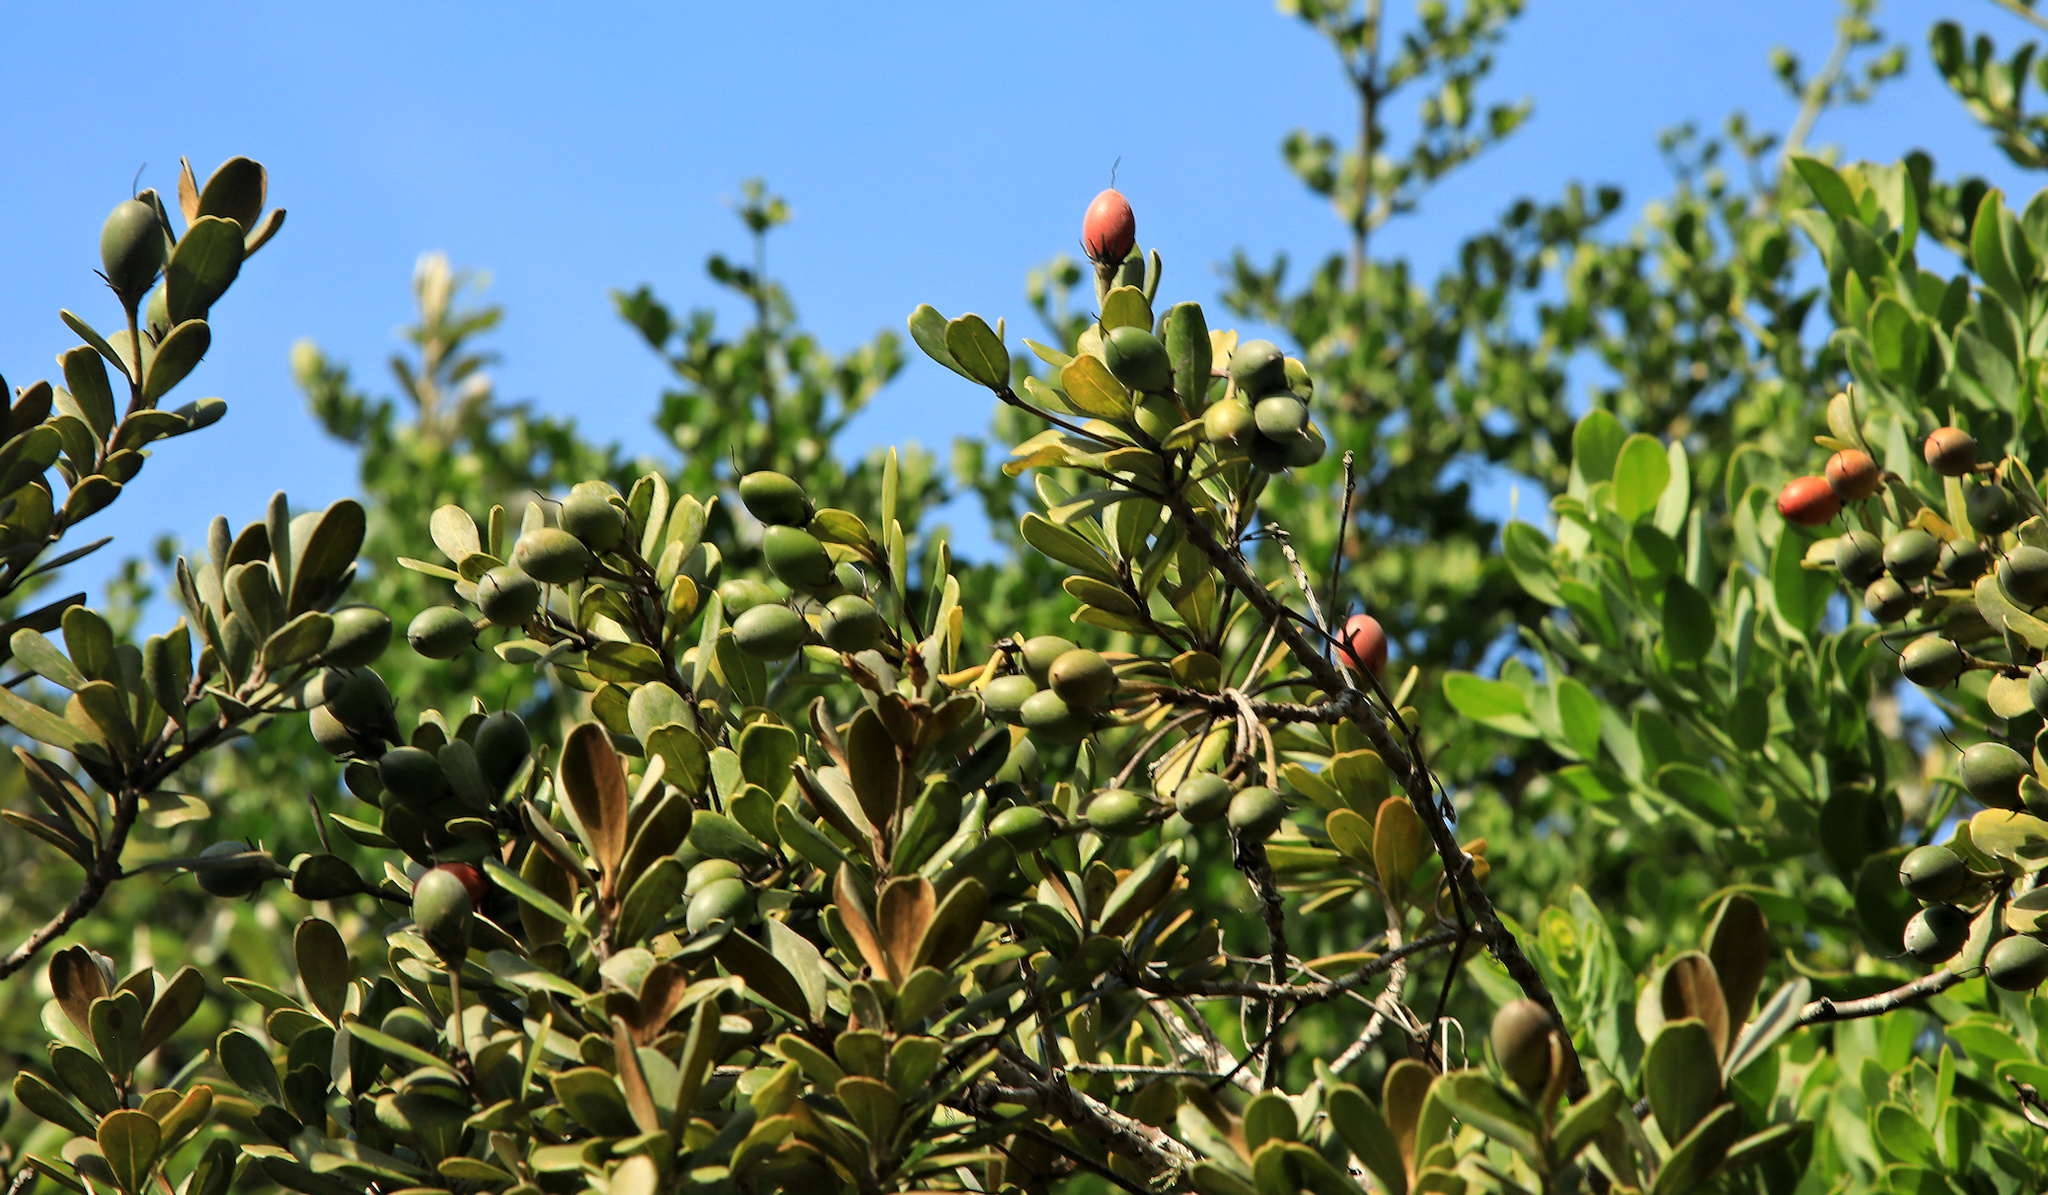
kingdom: Plantae
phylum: Tracheophyta
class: Magnoliopsida
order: Ericales
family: Sapotaceae
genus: Mimusops
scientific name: Mimusops caffra
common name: Coastal red milkwood
